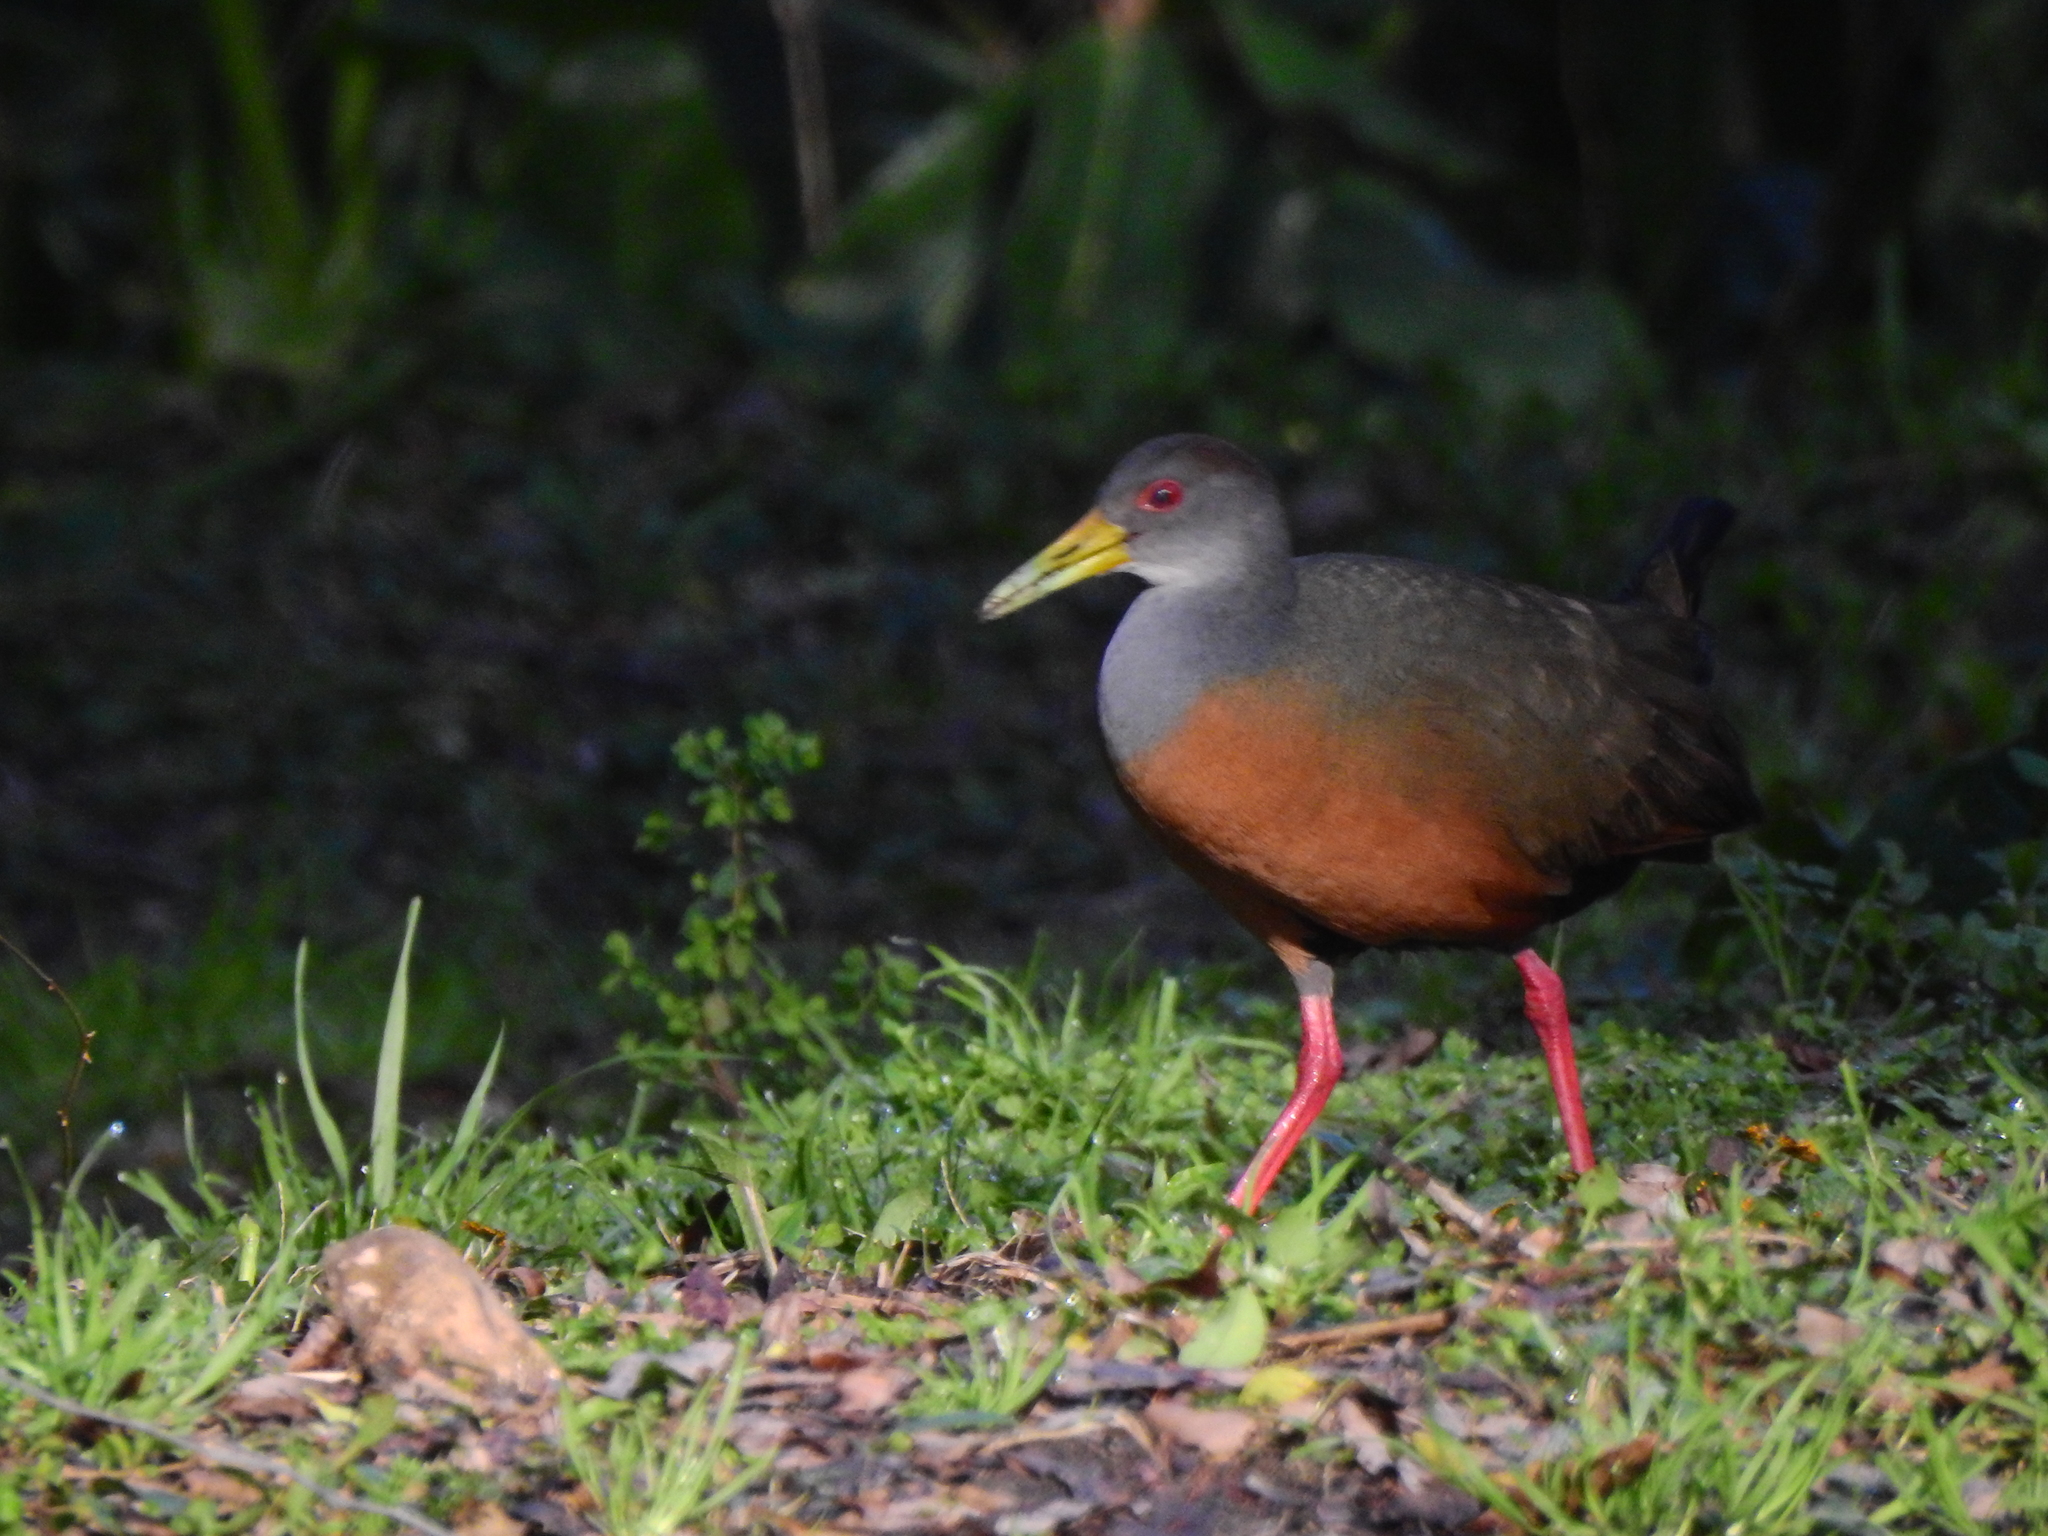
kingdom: Animalia
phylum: Chordata
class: Aves
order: Gruiformes
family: Rallidae
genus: Aramides
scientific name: Aramides cajanea
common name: Gray-necked wood-rail
